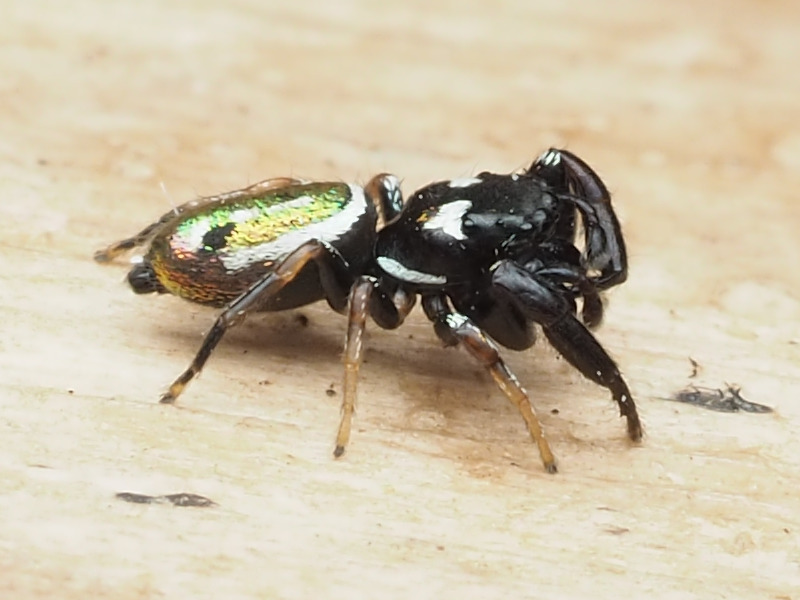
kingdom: Animalia
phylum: Arthropoda
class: Arachnida
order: Araneae
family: Salticidae
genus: Sassacus
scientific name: Sassacus vitis
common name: Jumping spiders
